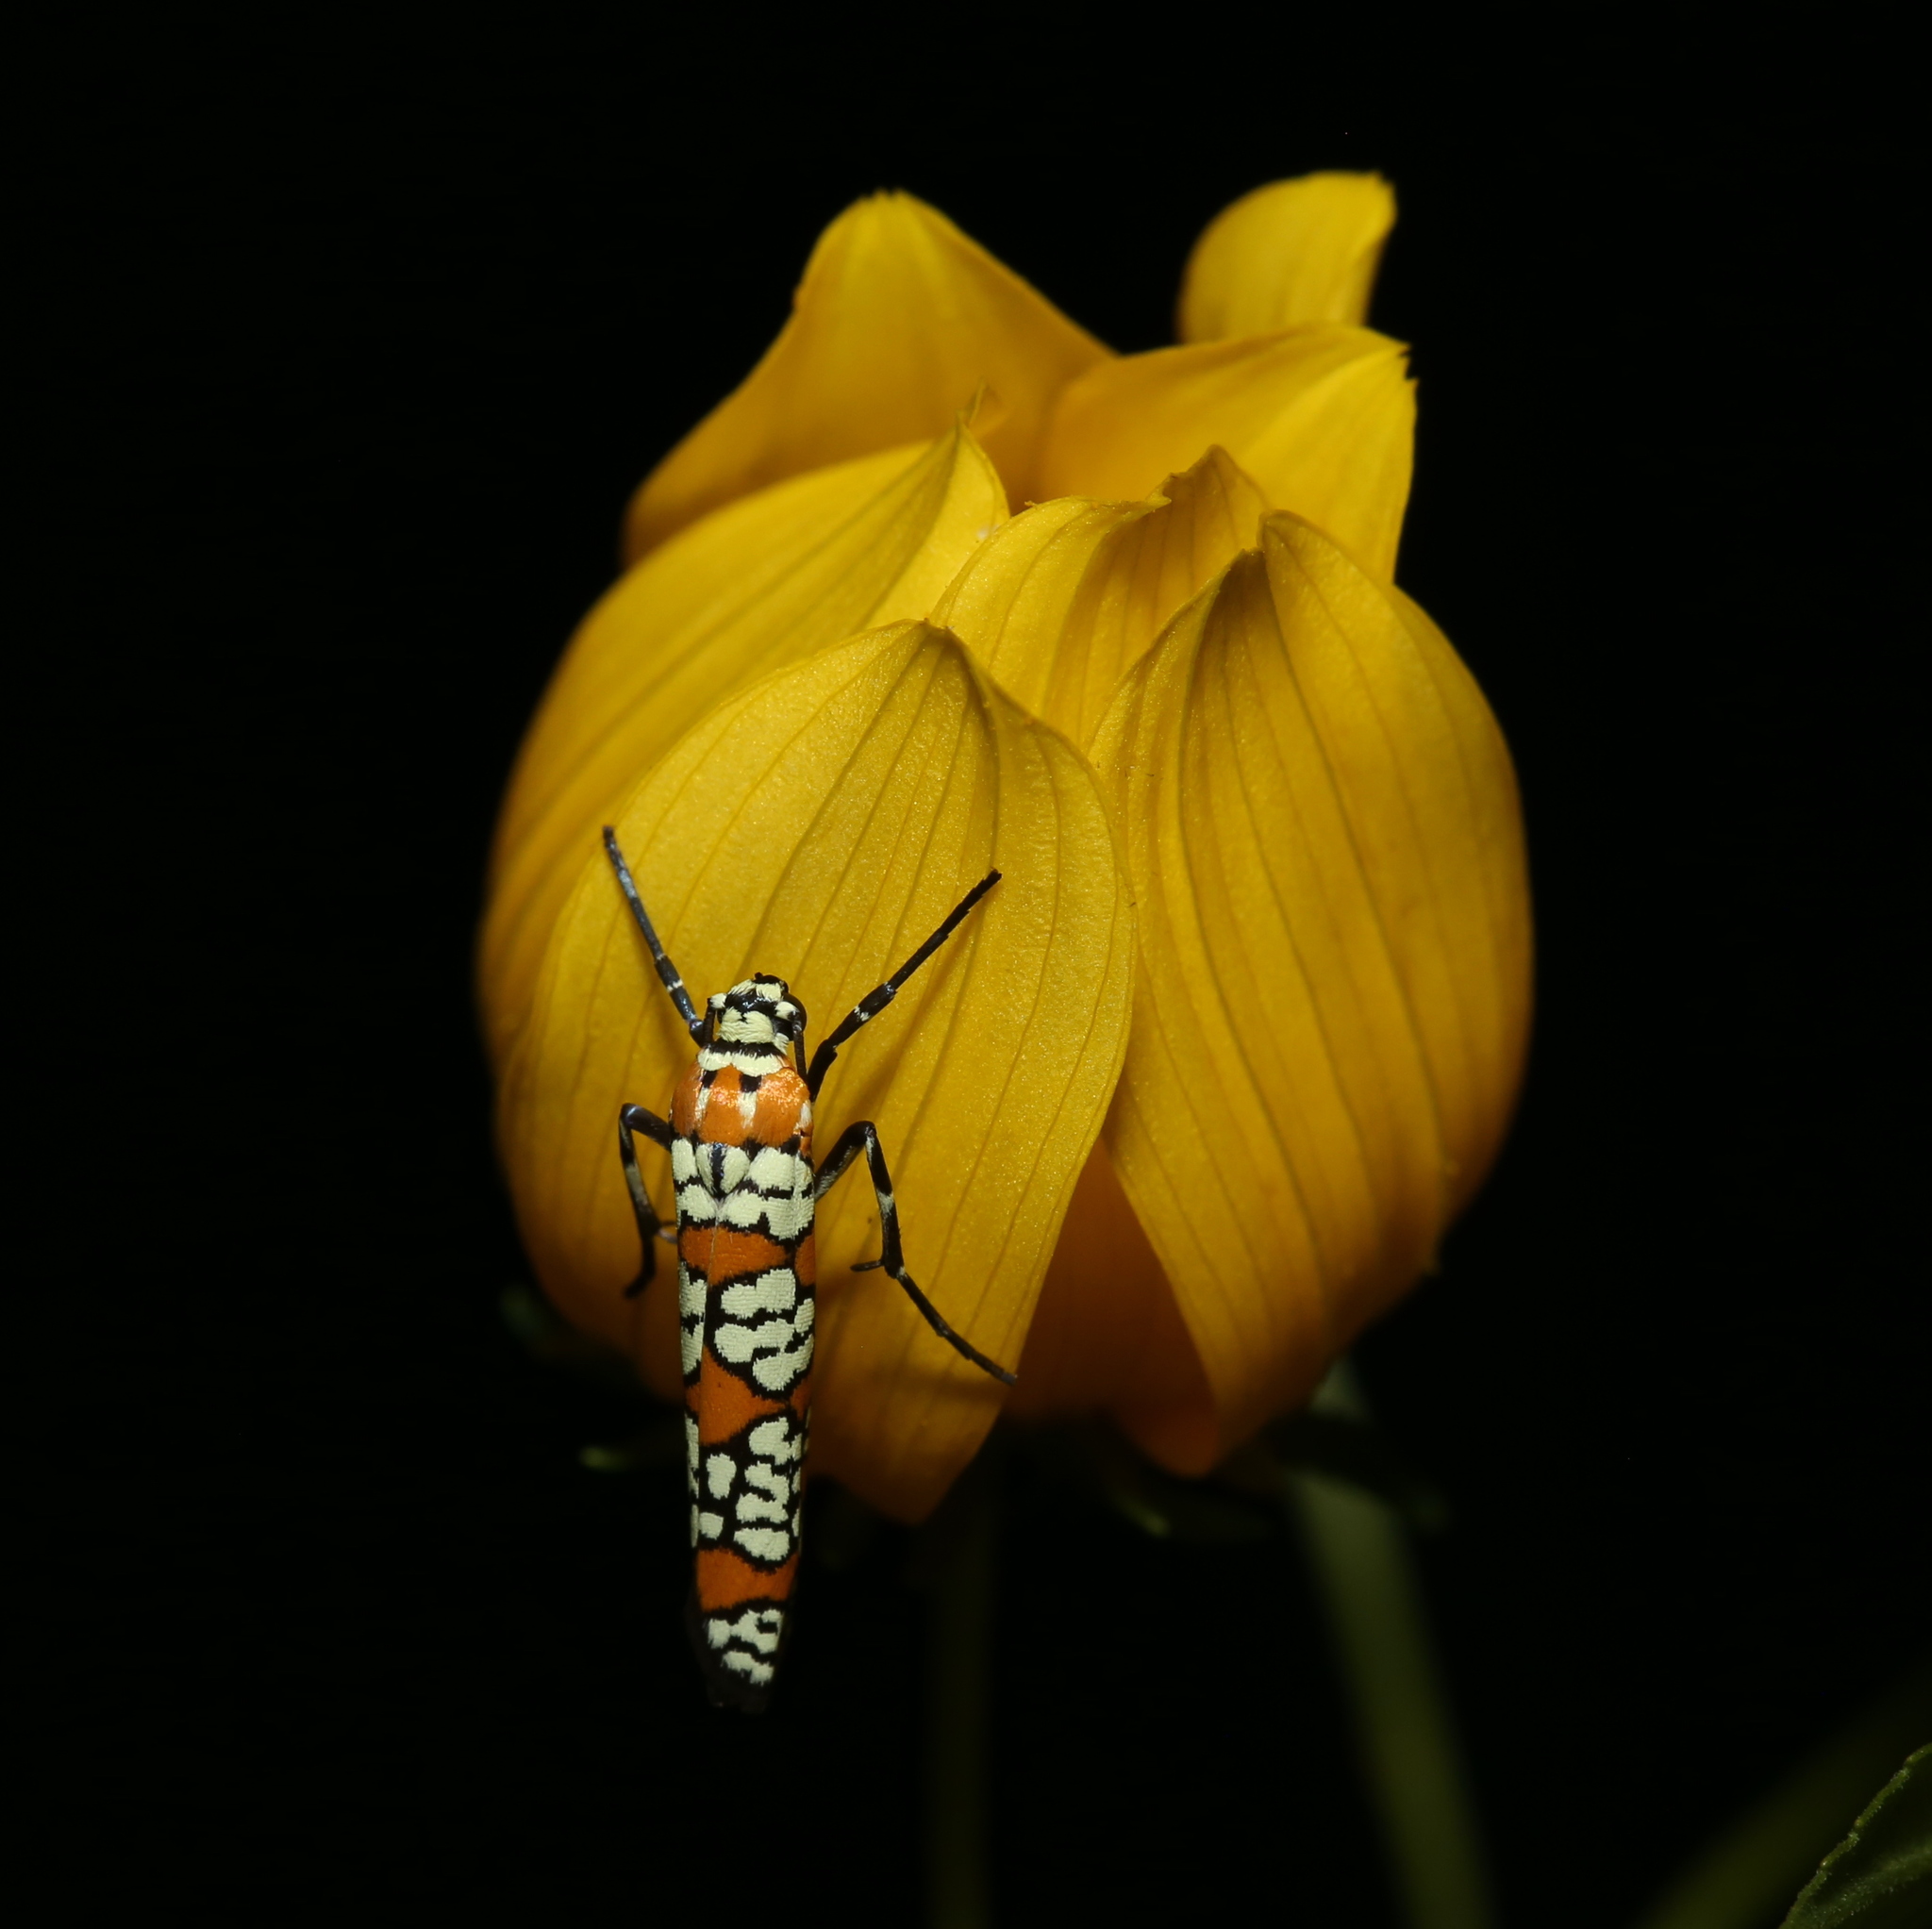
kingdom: Animalia
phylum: Arthropoda
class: Insecta
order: Lepidoptera
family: Attevidae
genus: Atteva
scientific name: Atteva punctella
